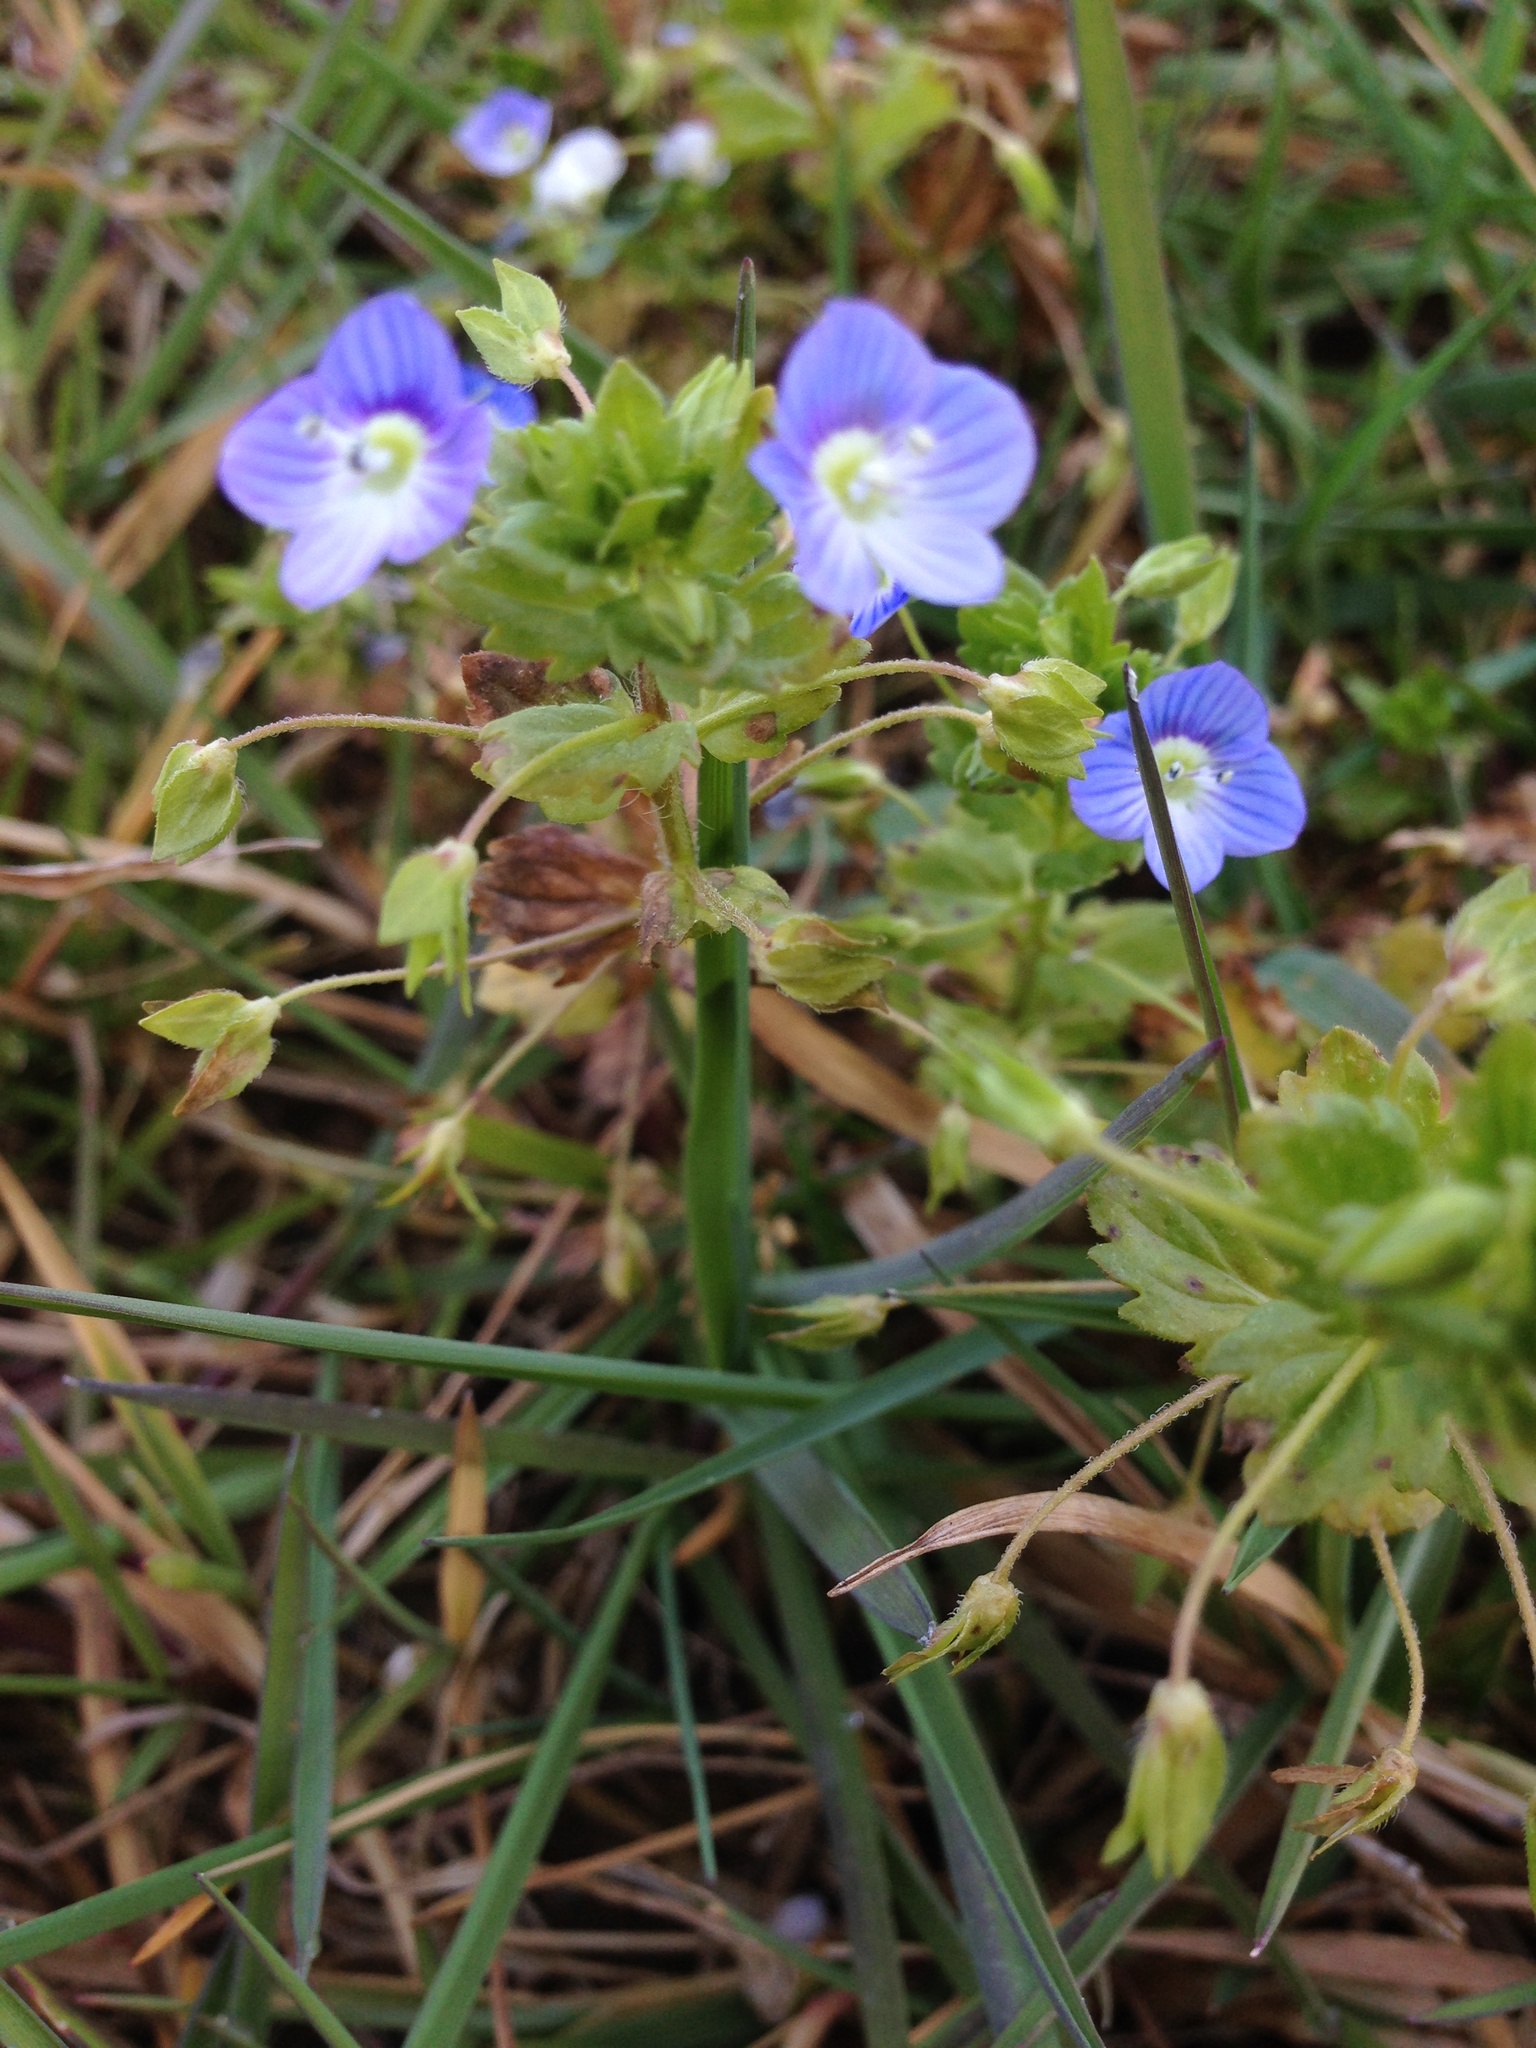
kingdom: Plantae
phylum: Tracheophyta
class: Magnoliopsida
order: Lamiales
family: Plantaginaceae
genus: Veronica
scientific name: Veronica persica
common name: Common field-speedwell
